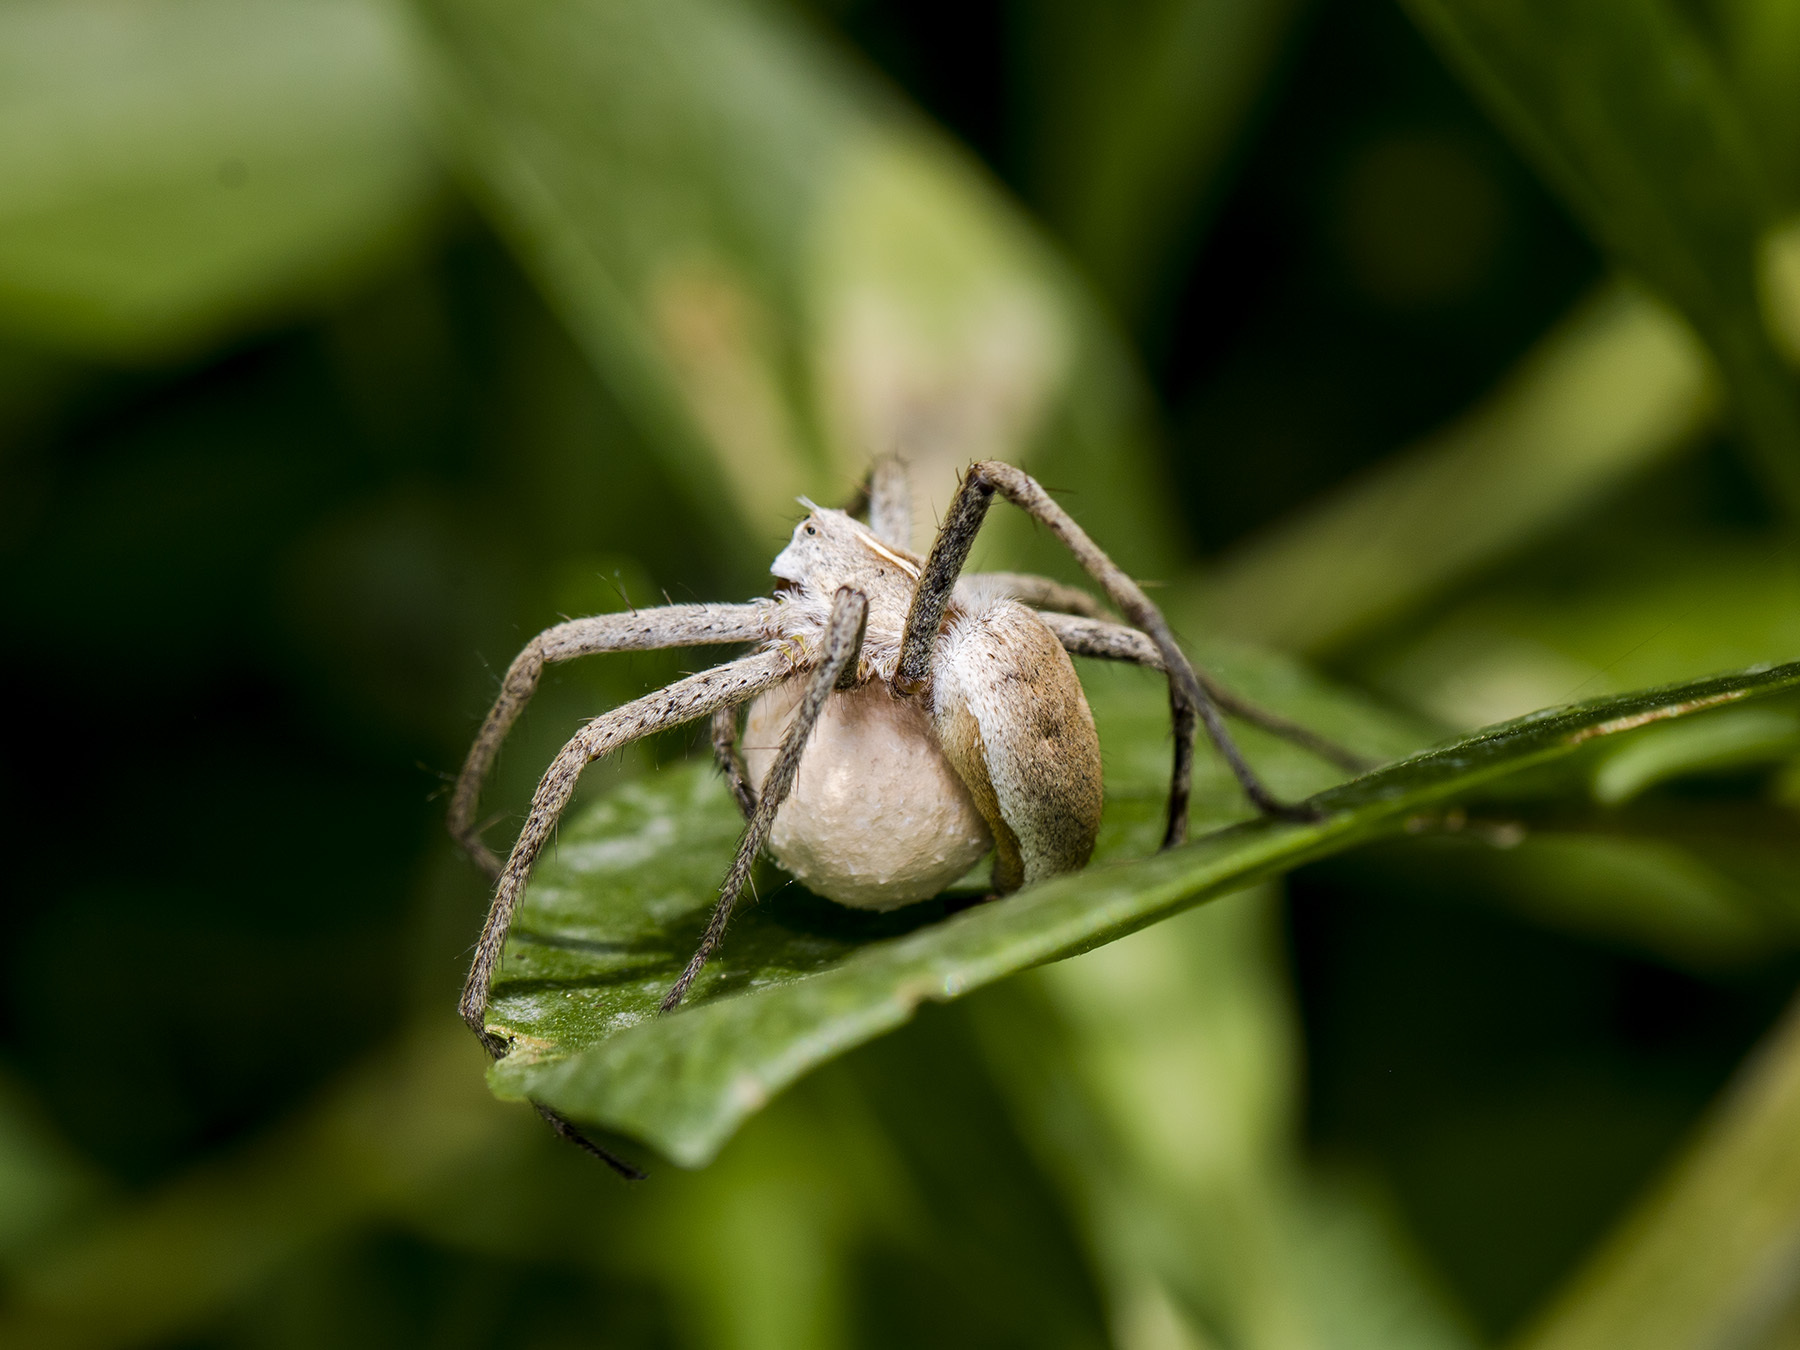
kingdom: Animalia
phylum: Arthropoda
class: Arachnida
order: Araneae
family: Pisauridae
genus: Pisaura
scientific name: Pisaura mirabilis
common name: Tent spider
